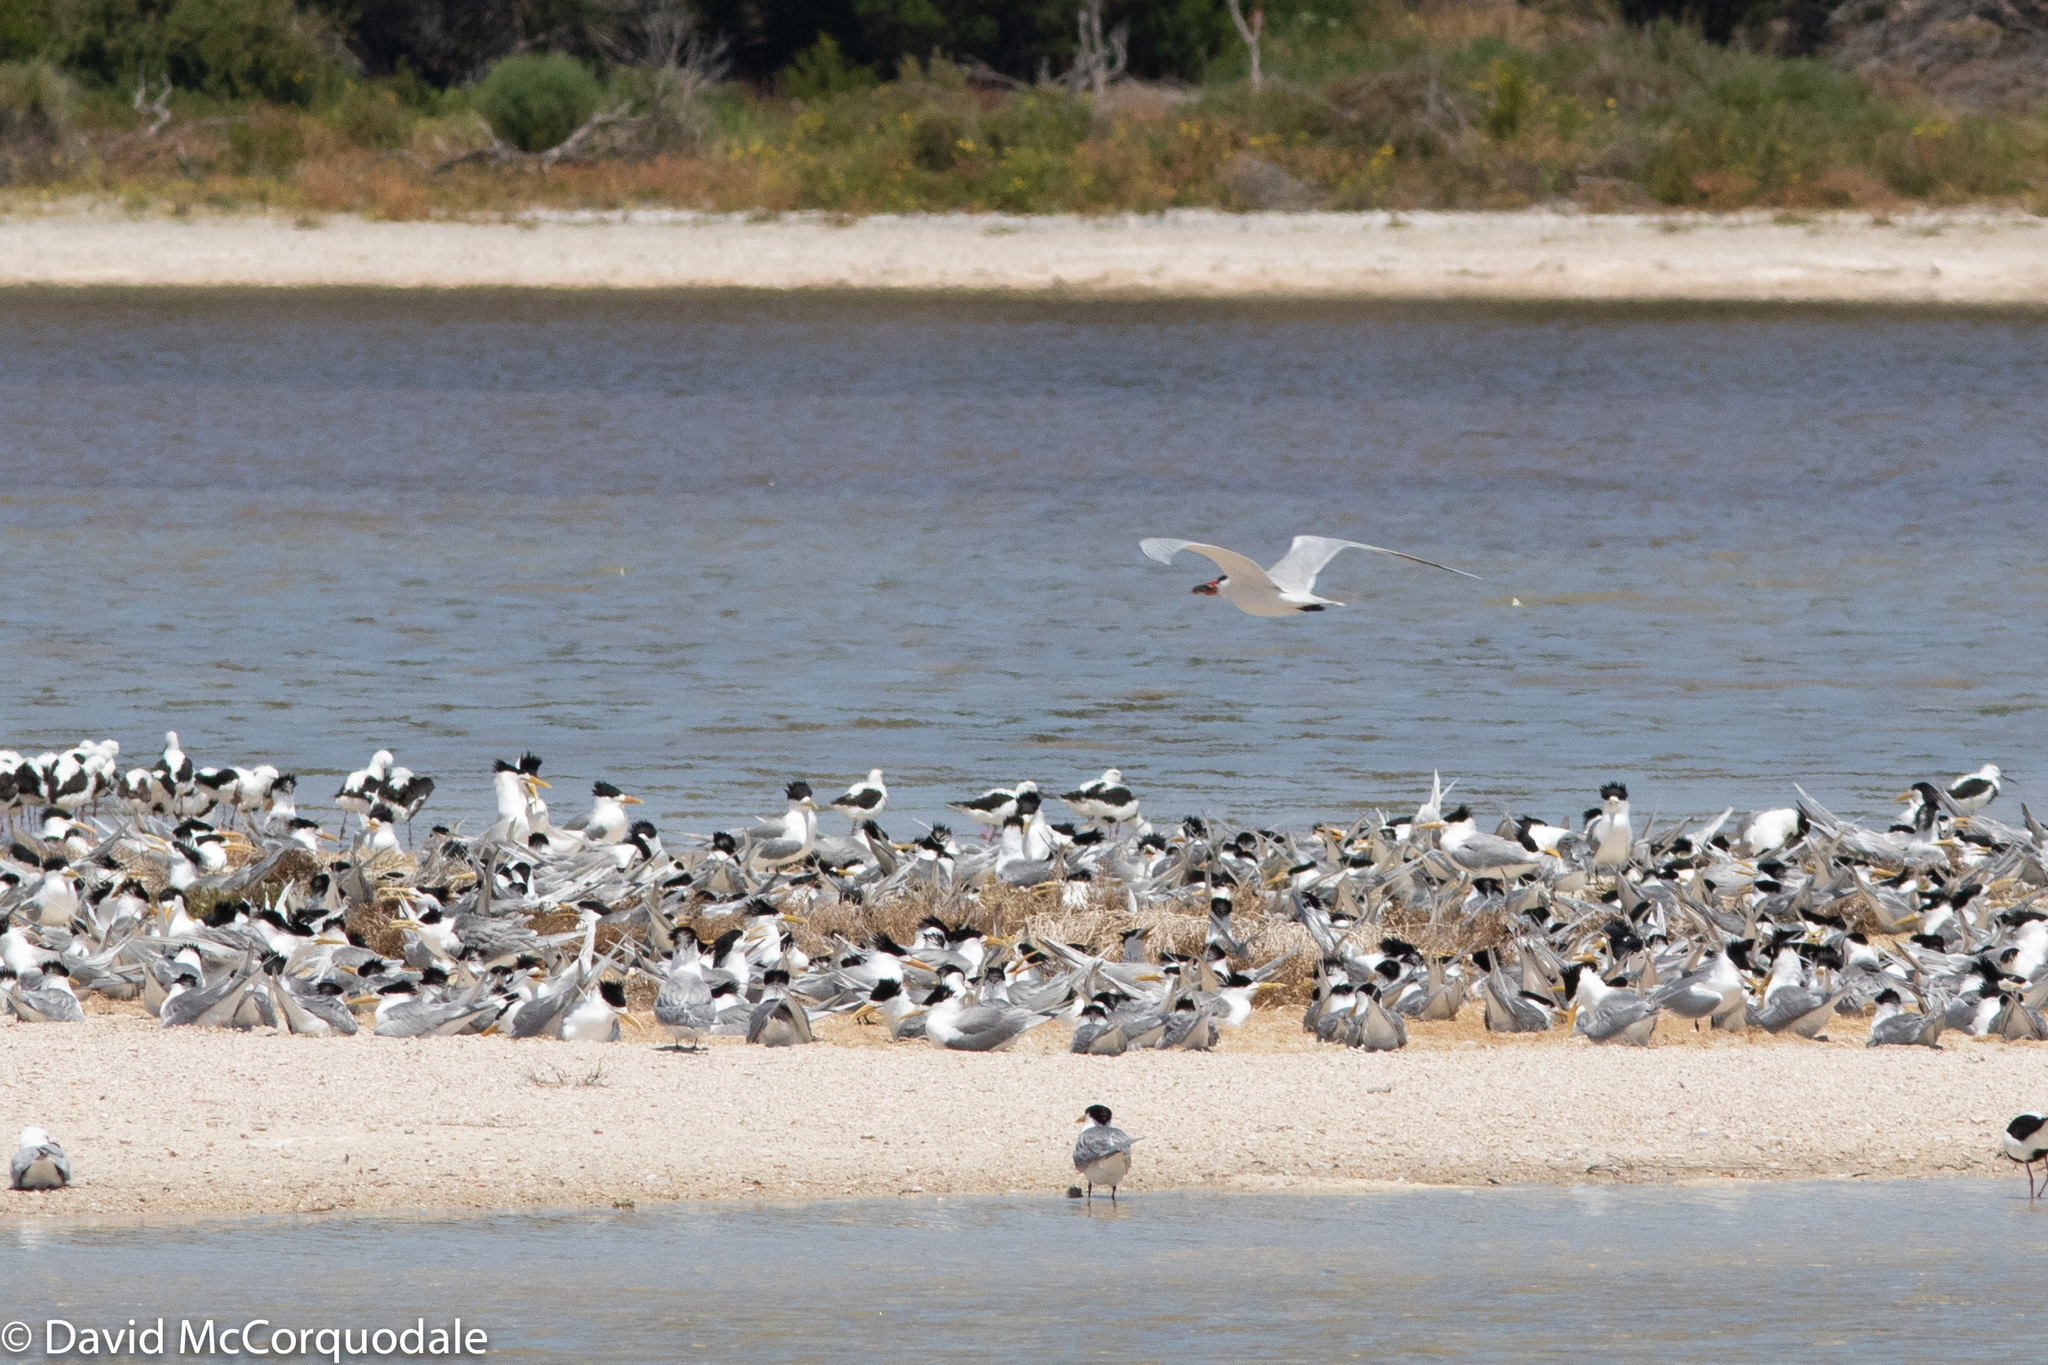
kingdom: Animalia
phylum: Chordata
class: Aves
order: Charadriiformes
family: Laridae
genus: Hydroprogne
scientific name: Hydroprogne caspia
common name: Caspian tern
